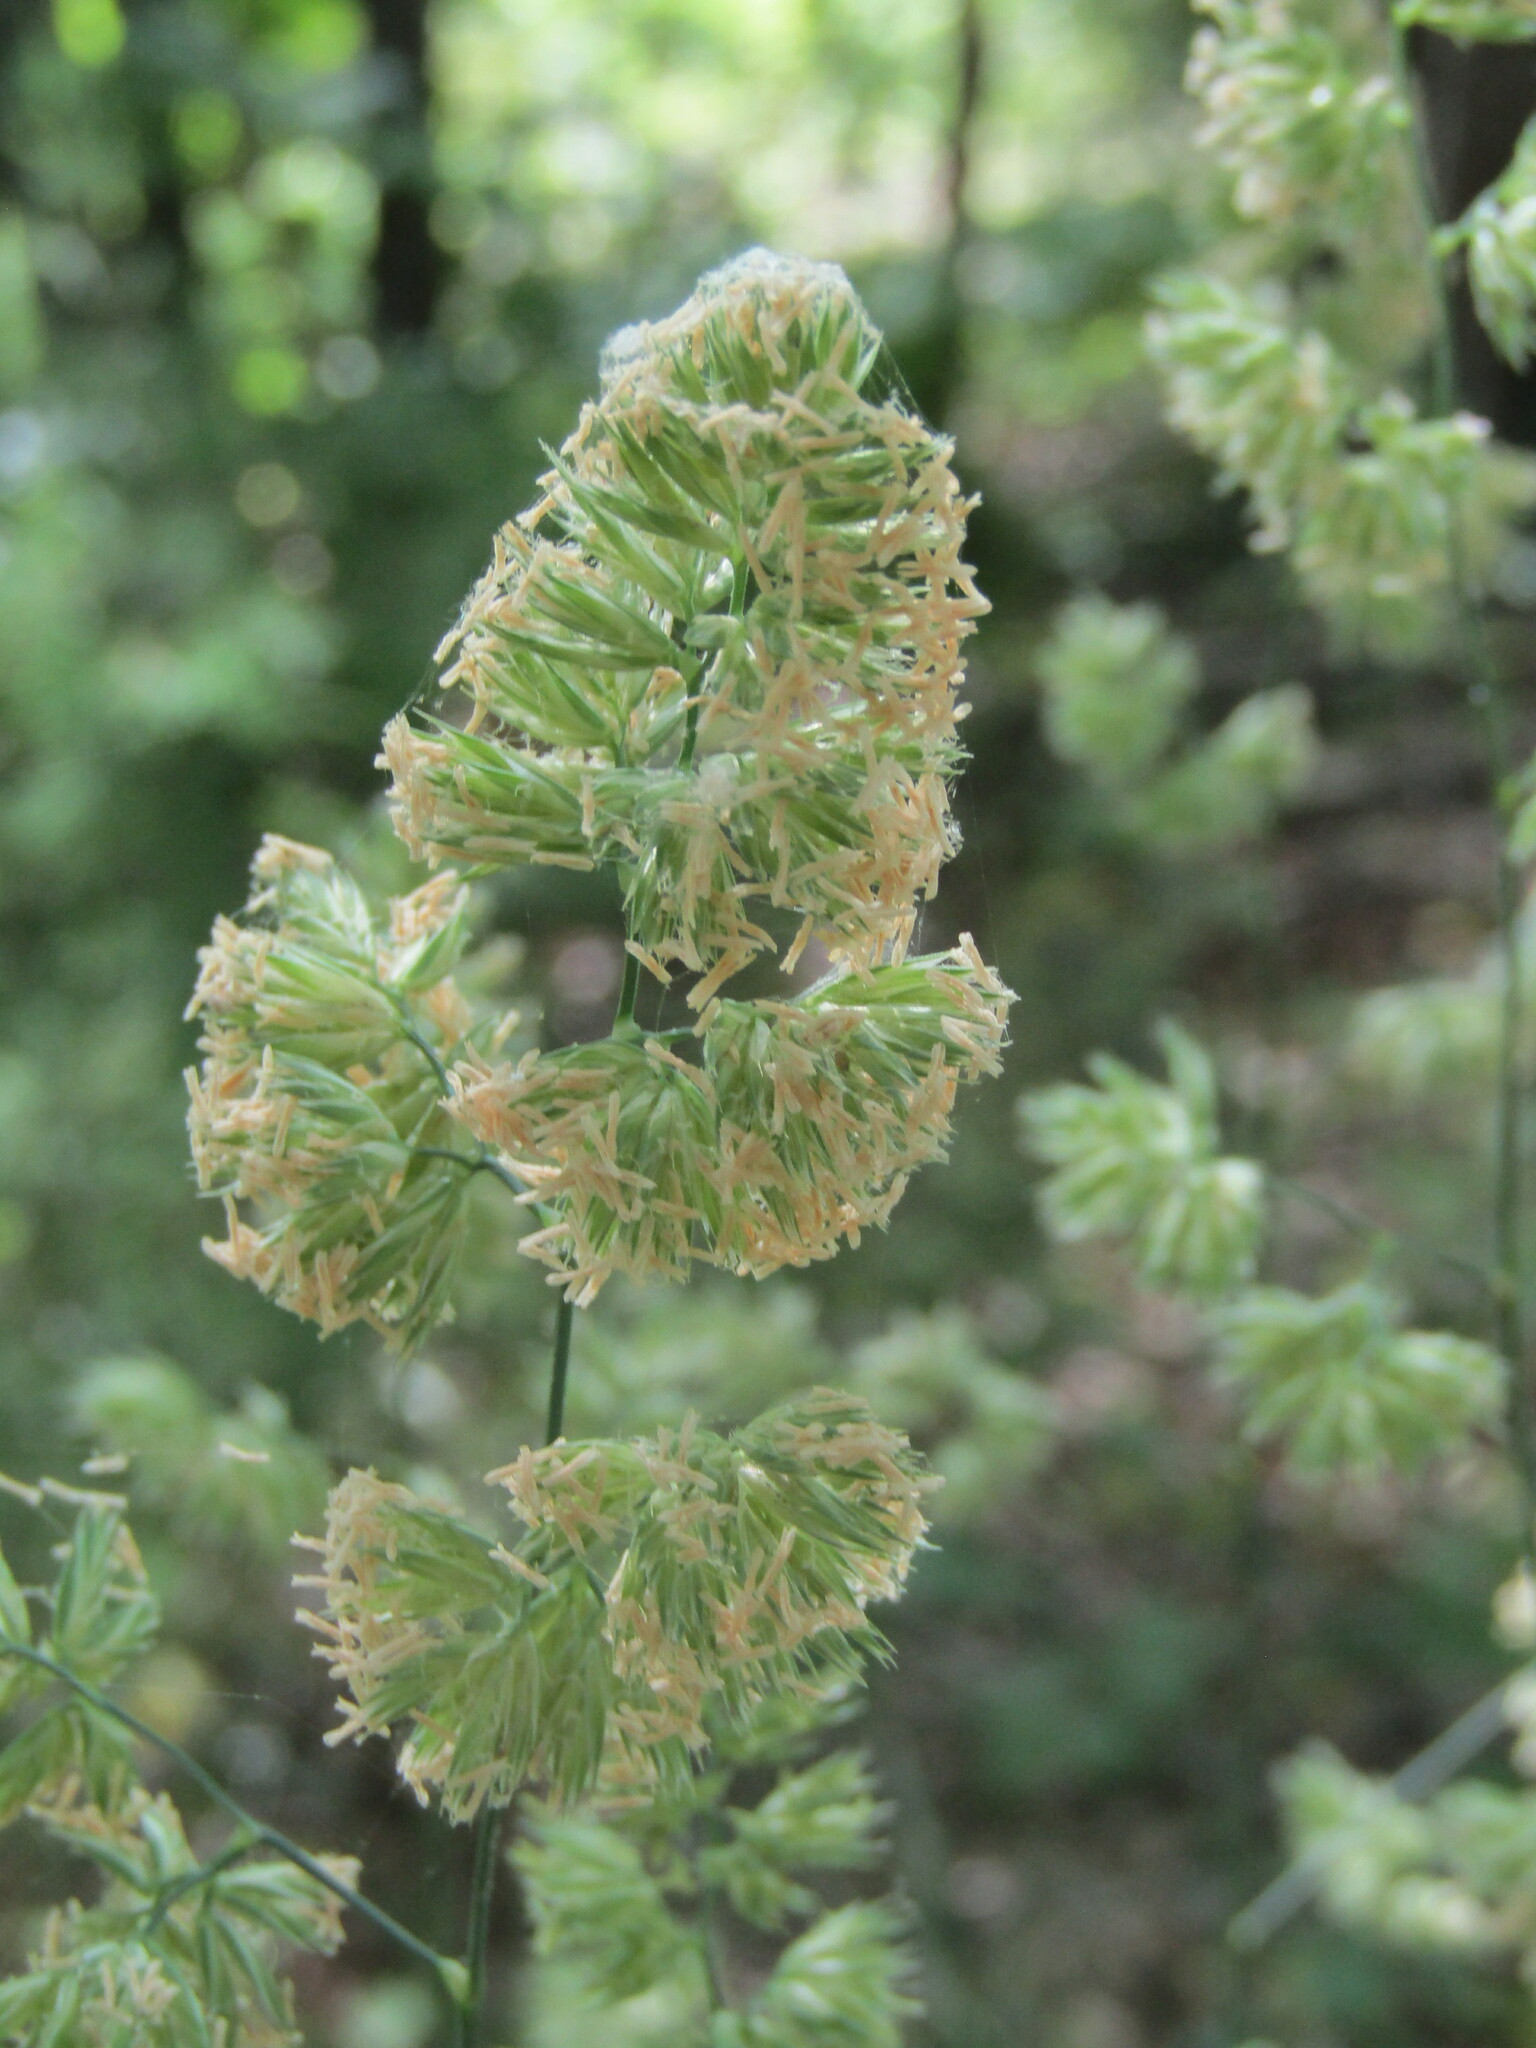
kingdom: Plantae
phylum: Tracheophyta
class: Liliopsida
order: Poales
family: Poaceae
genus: Dactylis
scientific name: Dactylis glomerata
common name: Orchardgrass
